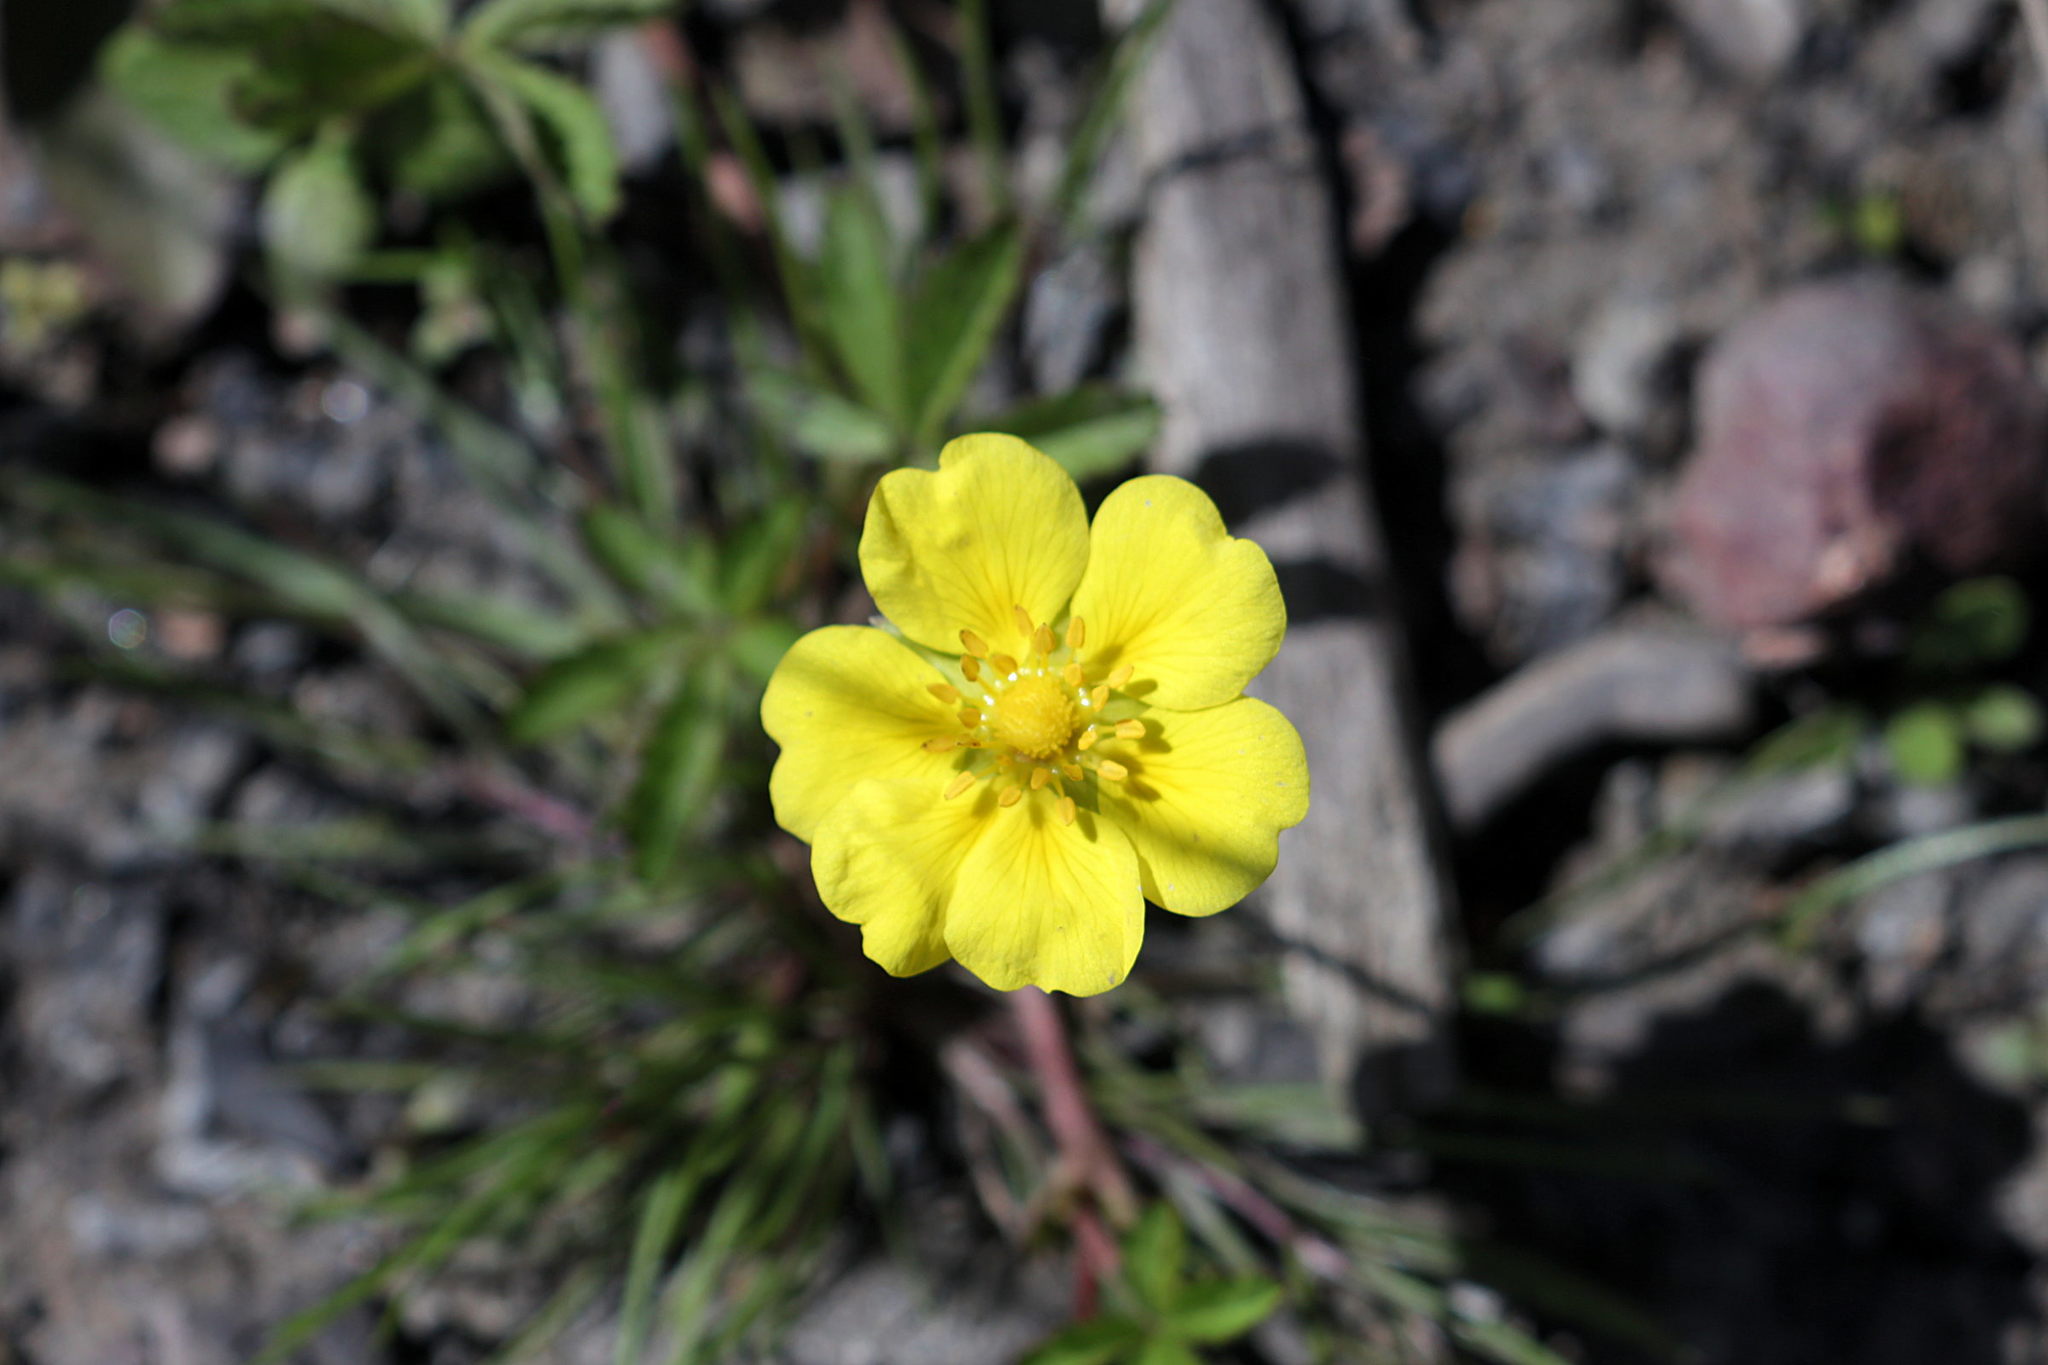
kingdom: Plantae
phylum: Tracheophyta
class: Magnoliopsida
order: Rosales
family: Rosaceae
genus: Potentilla
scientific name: Potentilla reptans
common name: Creeping cinquefoil
